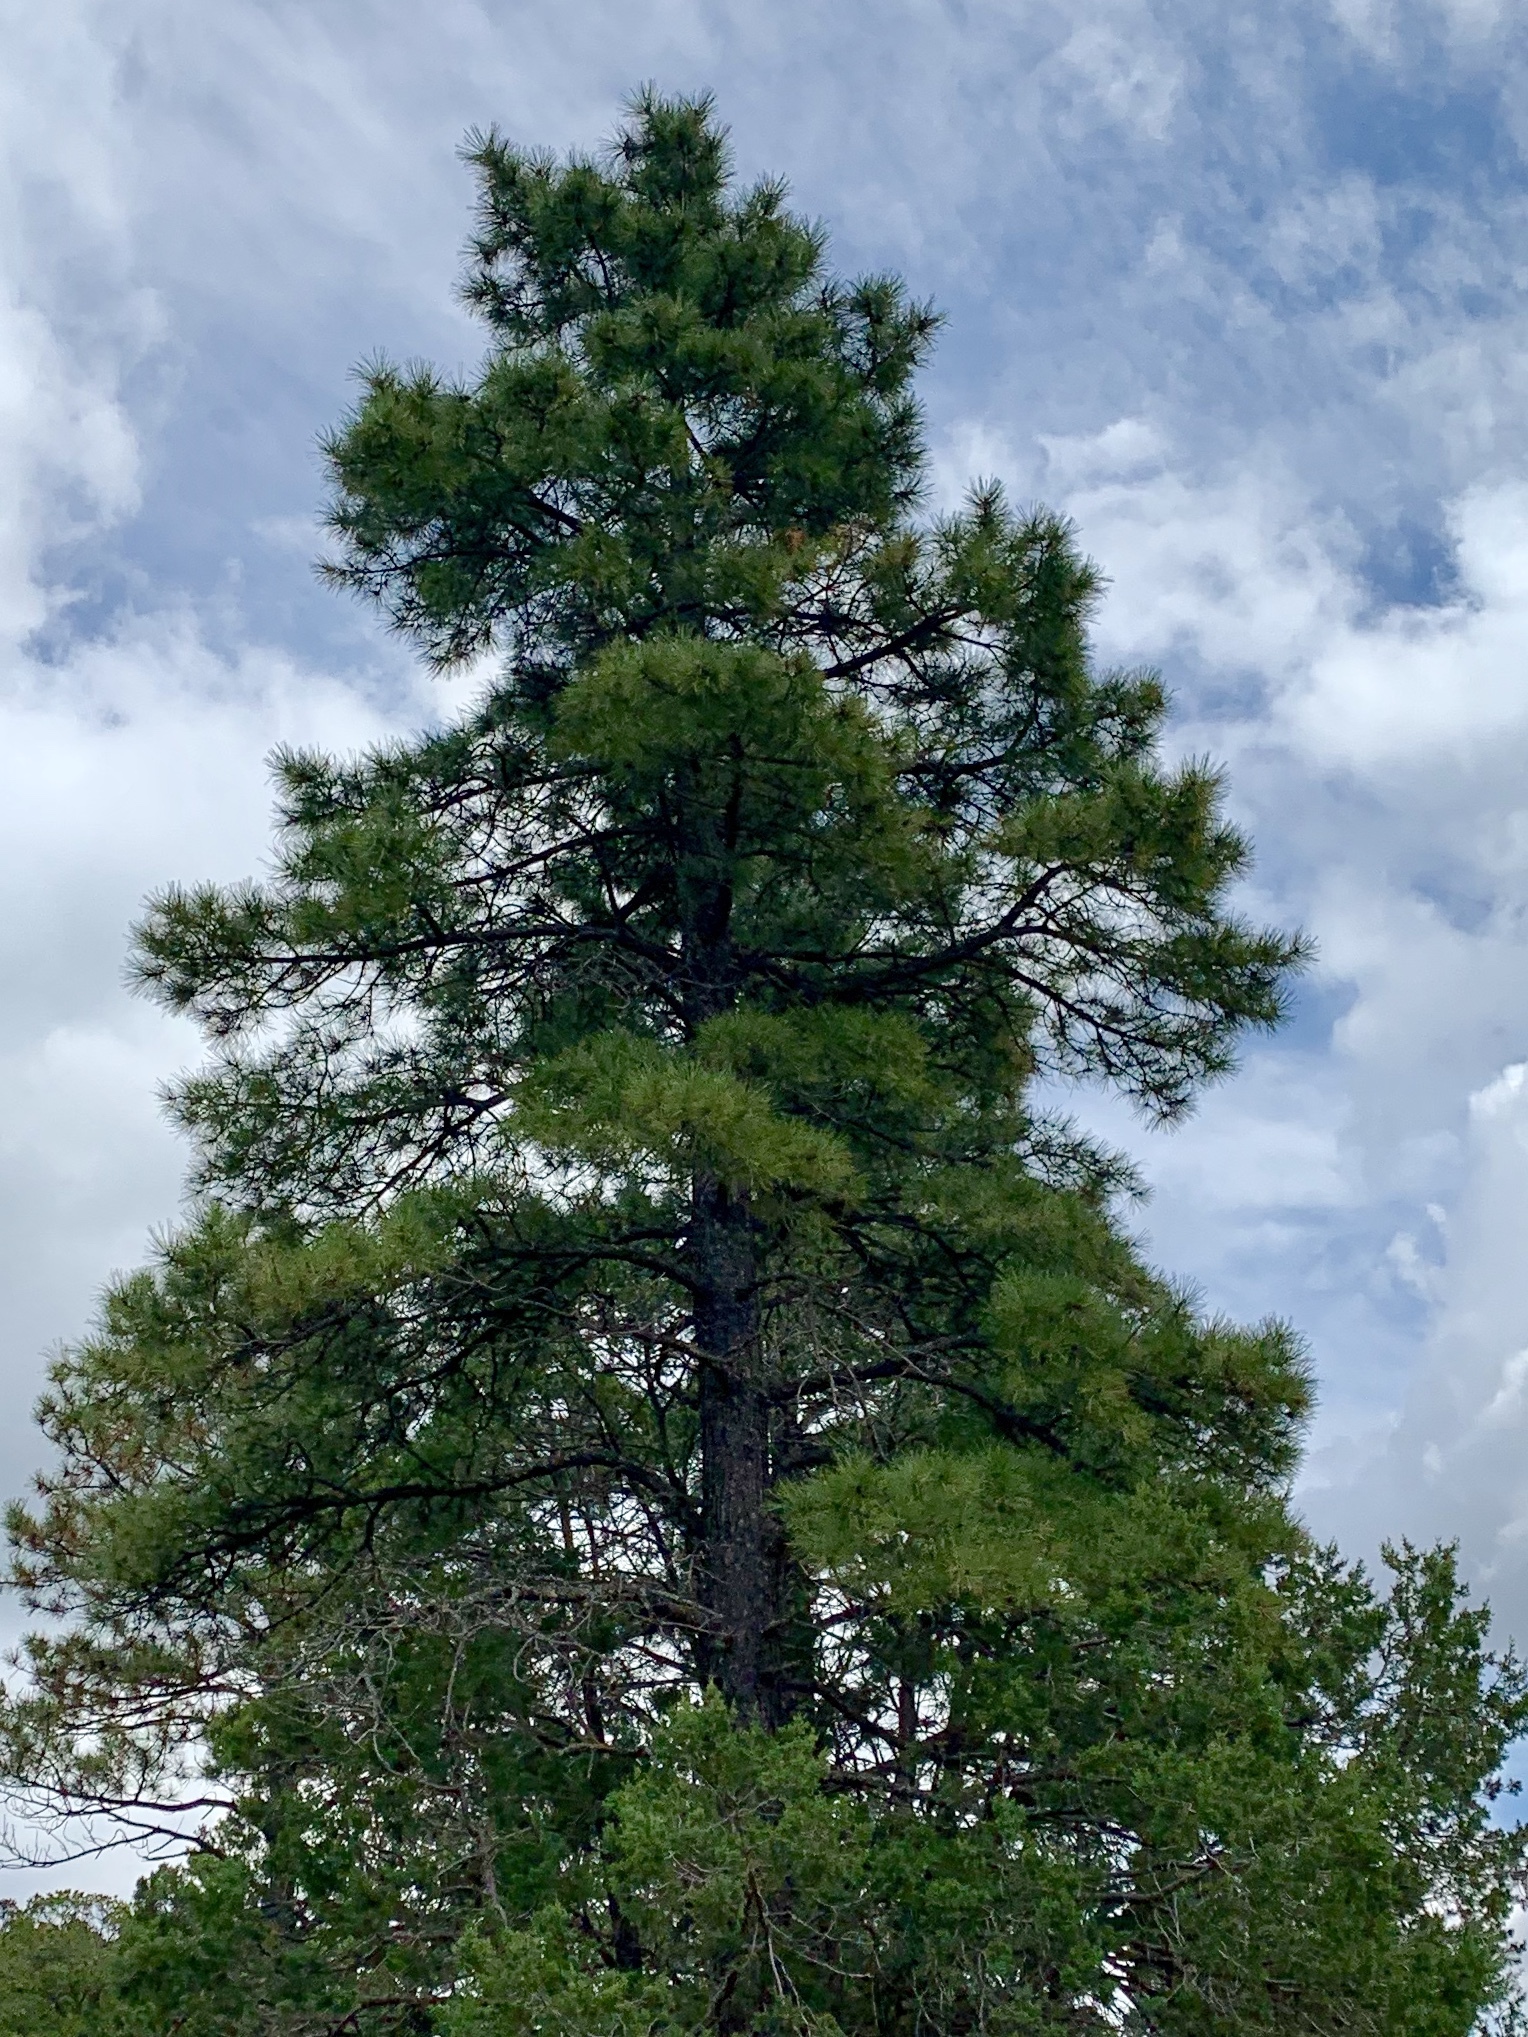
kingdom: Plantae
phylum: Tracheophyta
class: Pinopsida
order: Pinales
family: Pinaceae
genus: Pinus
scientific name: Pinus ponderosa
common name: Western yellow-pine
